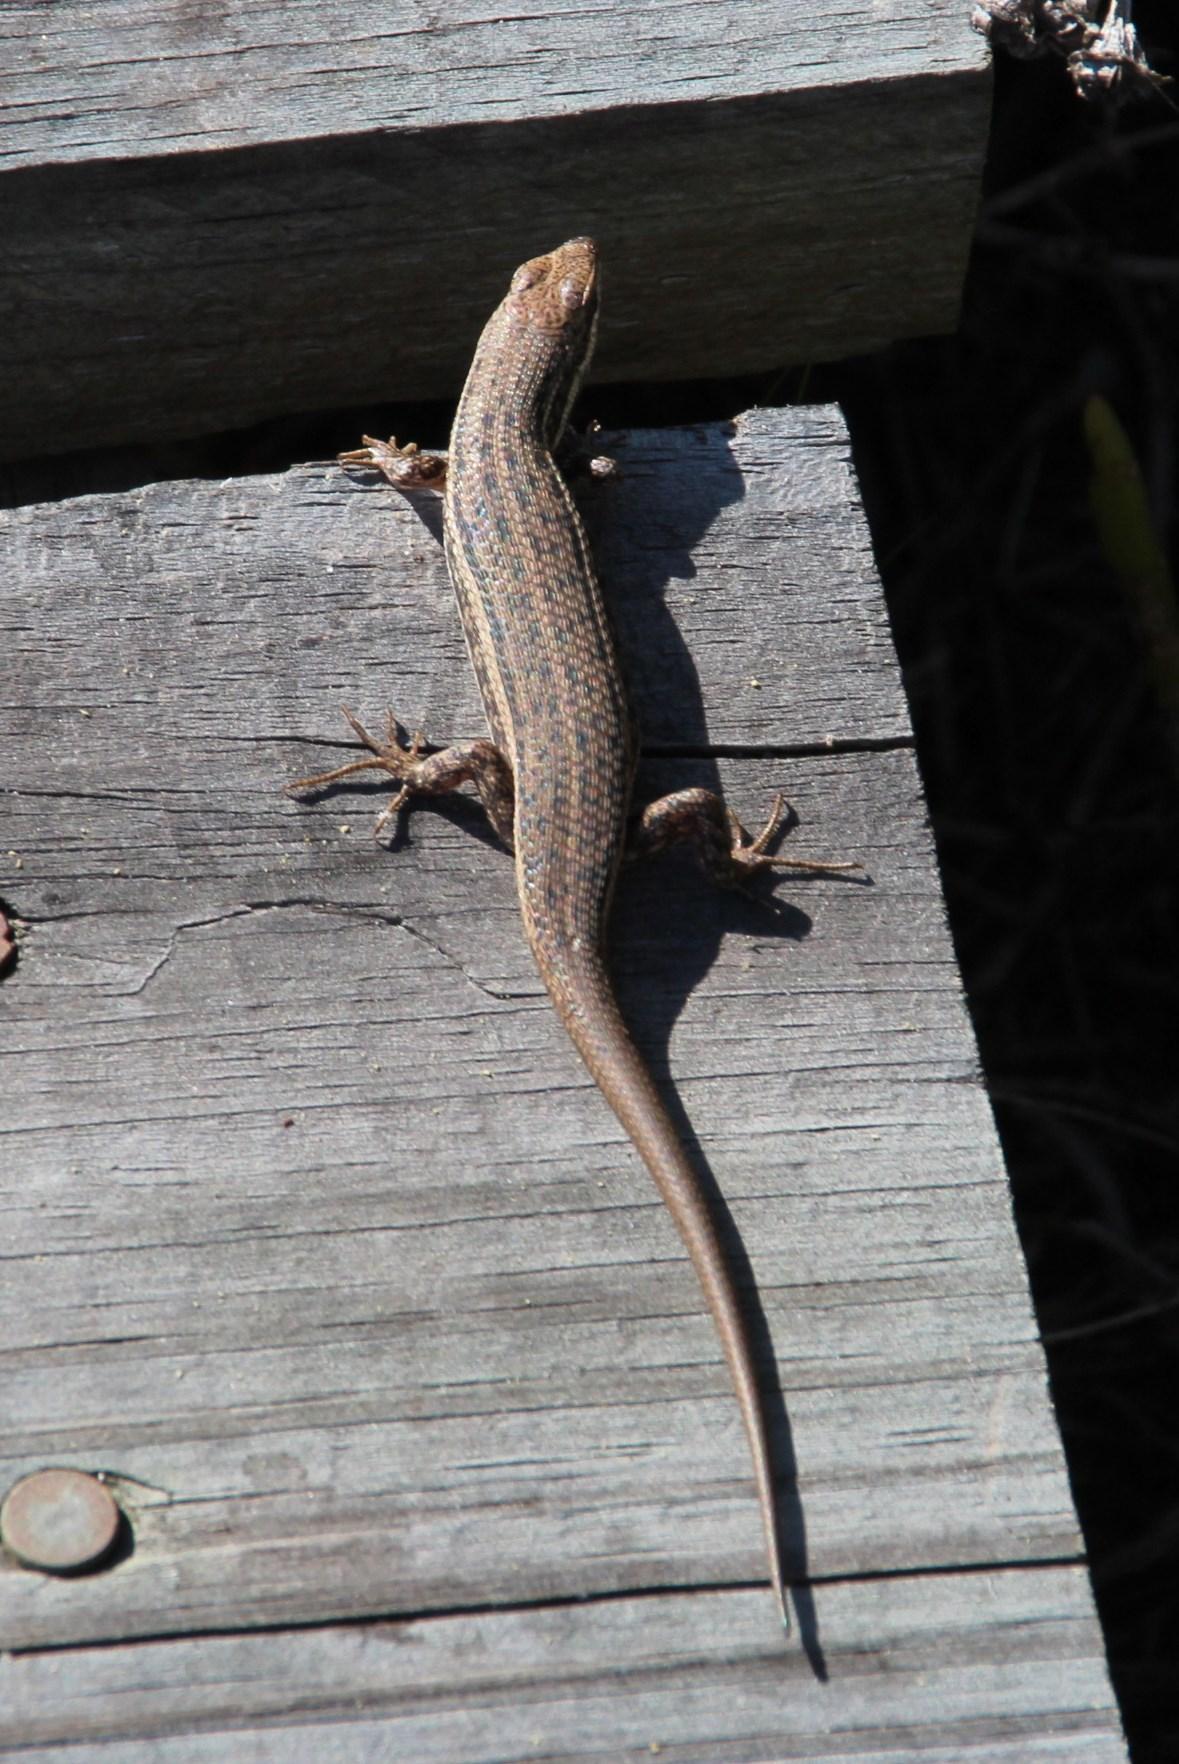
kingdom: Animalia
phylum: Chordata
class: Squamata
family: Scincidae
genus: Trachylepis
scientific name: Trachylepis variegata
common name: Variegated skink
